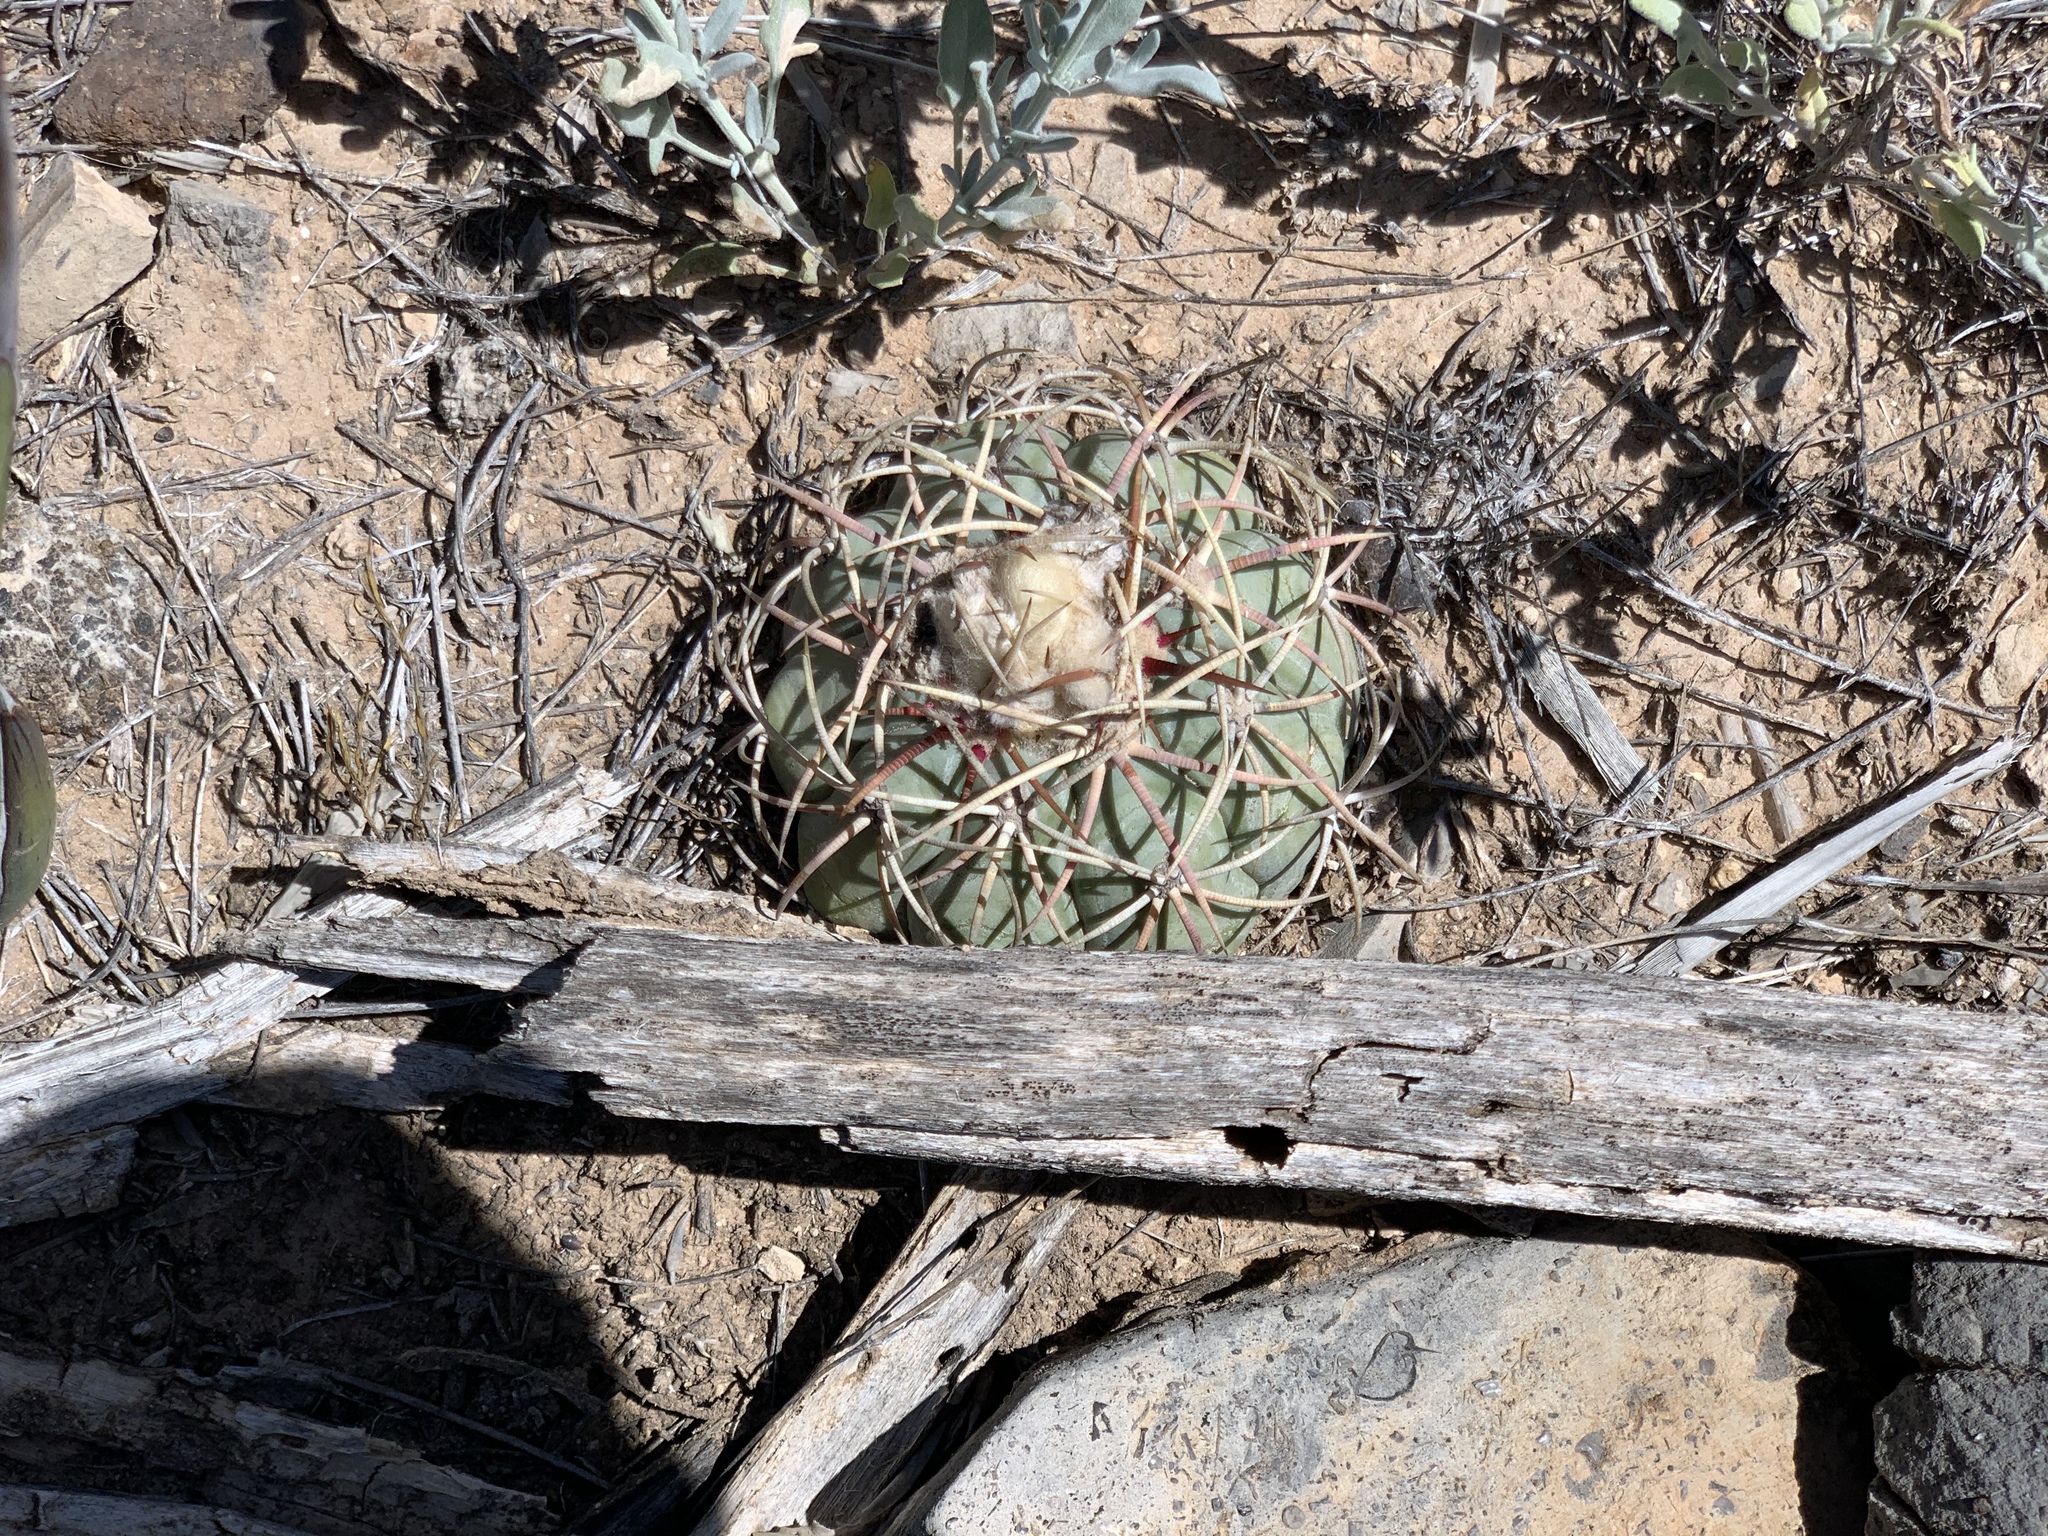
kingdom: Plantae
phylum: Tracheophyta
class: Magnoliopsida
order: Caryophyllales
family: Cactaceae
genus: Echinocactus
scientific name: Echinocactus horizonthalonius
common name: Devilshead
